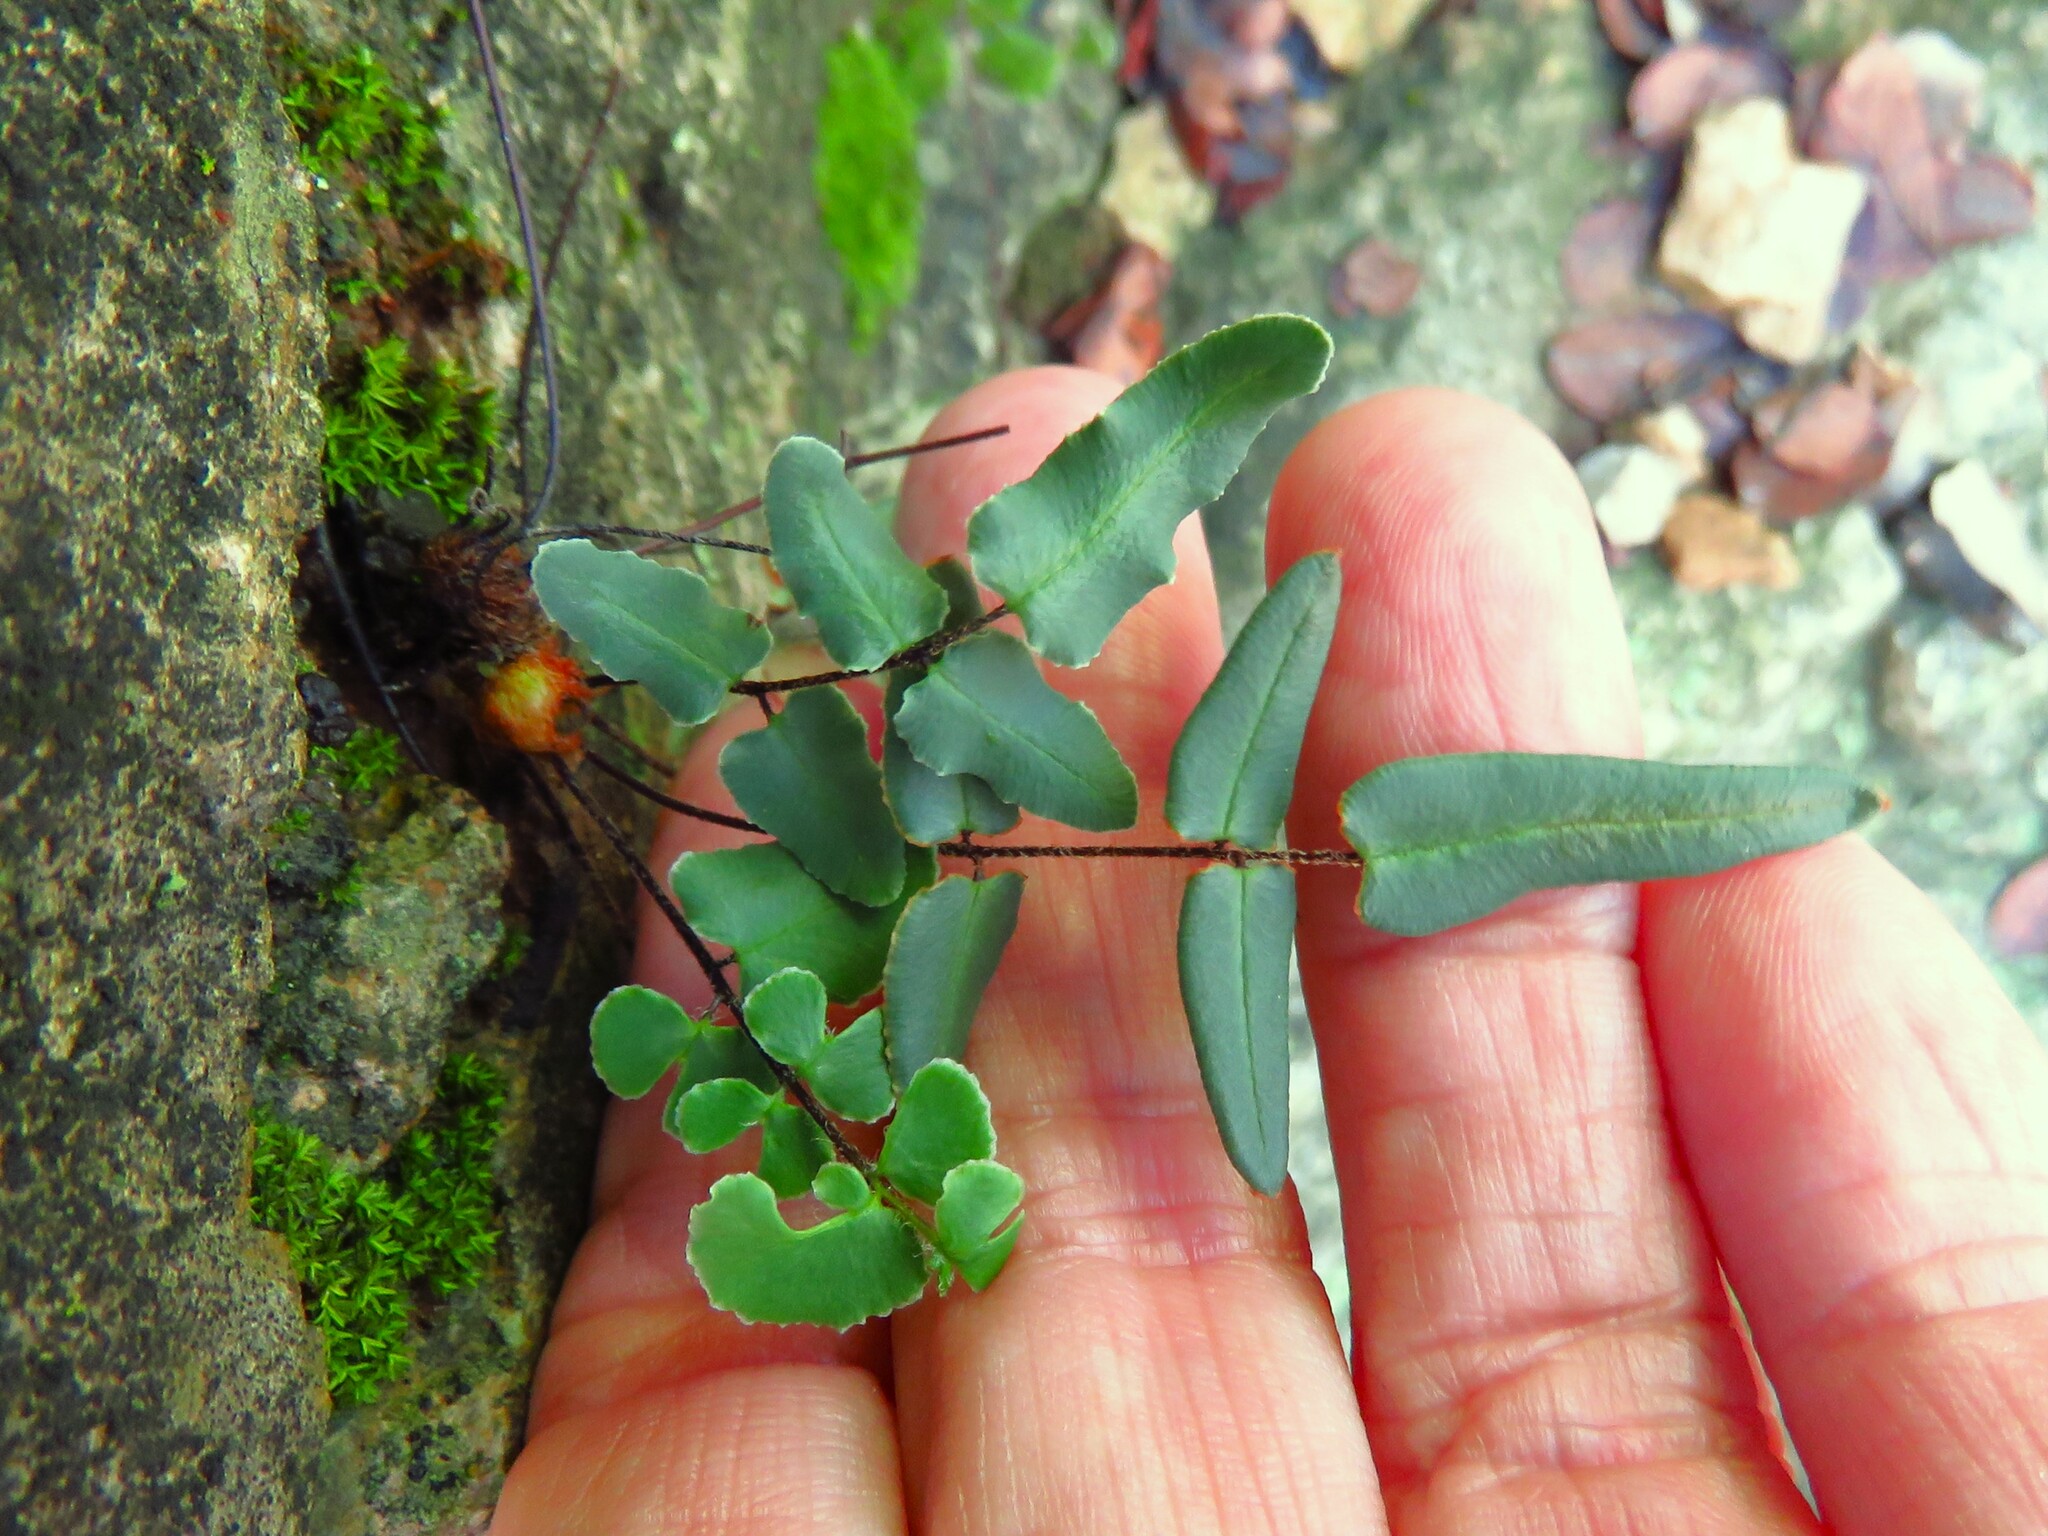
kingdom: Plantae
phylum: Tracheophyta
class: Polypodiopsida
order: Polypodiales
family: Pteridaceae
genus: Pellaea
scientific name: Pellaea atropurpurea
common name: Hairy cliffbrake
